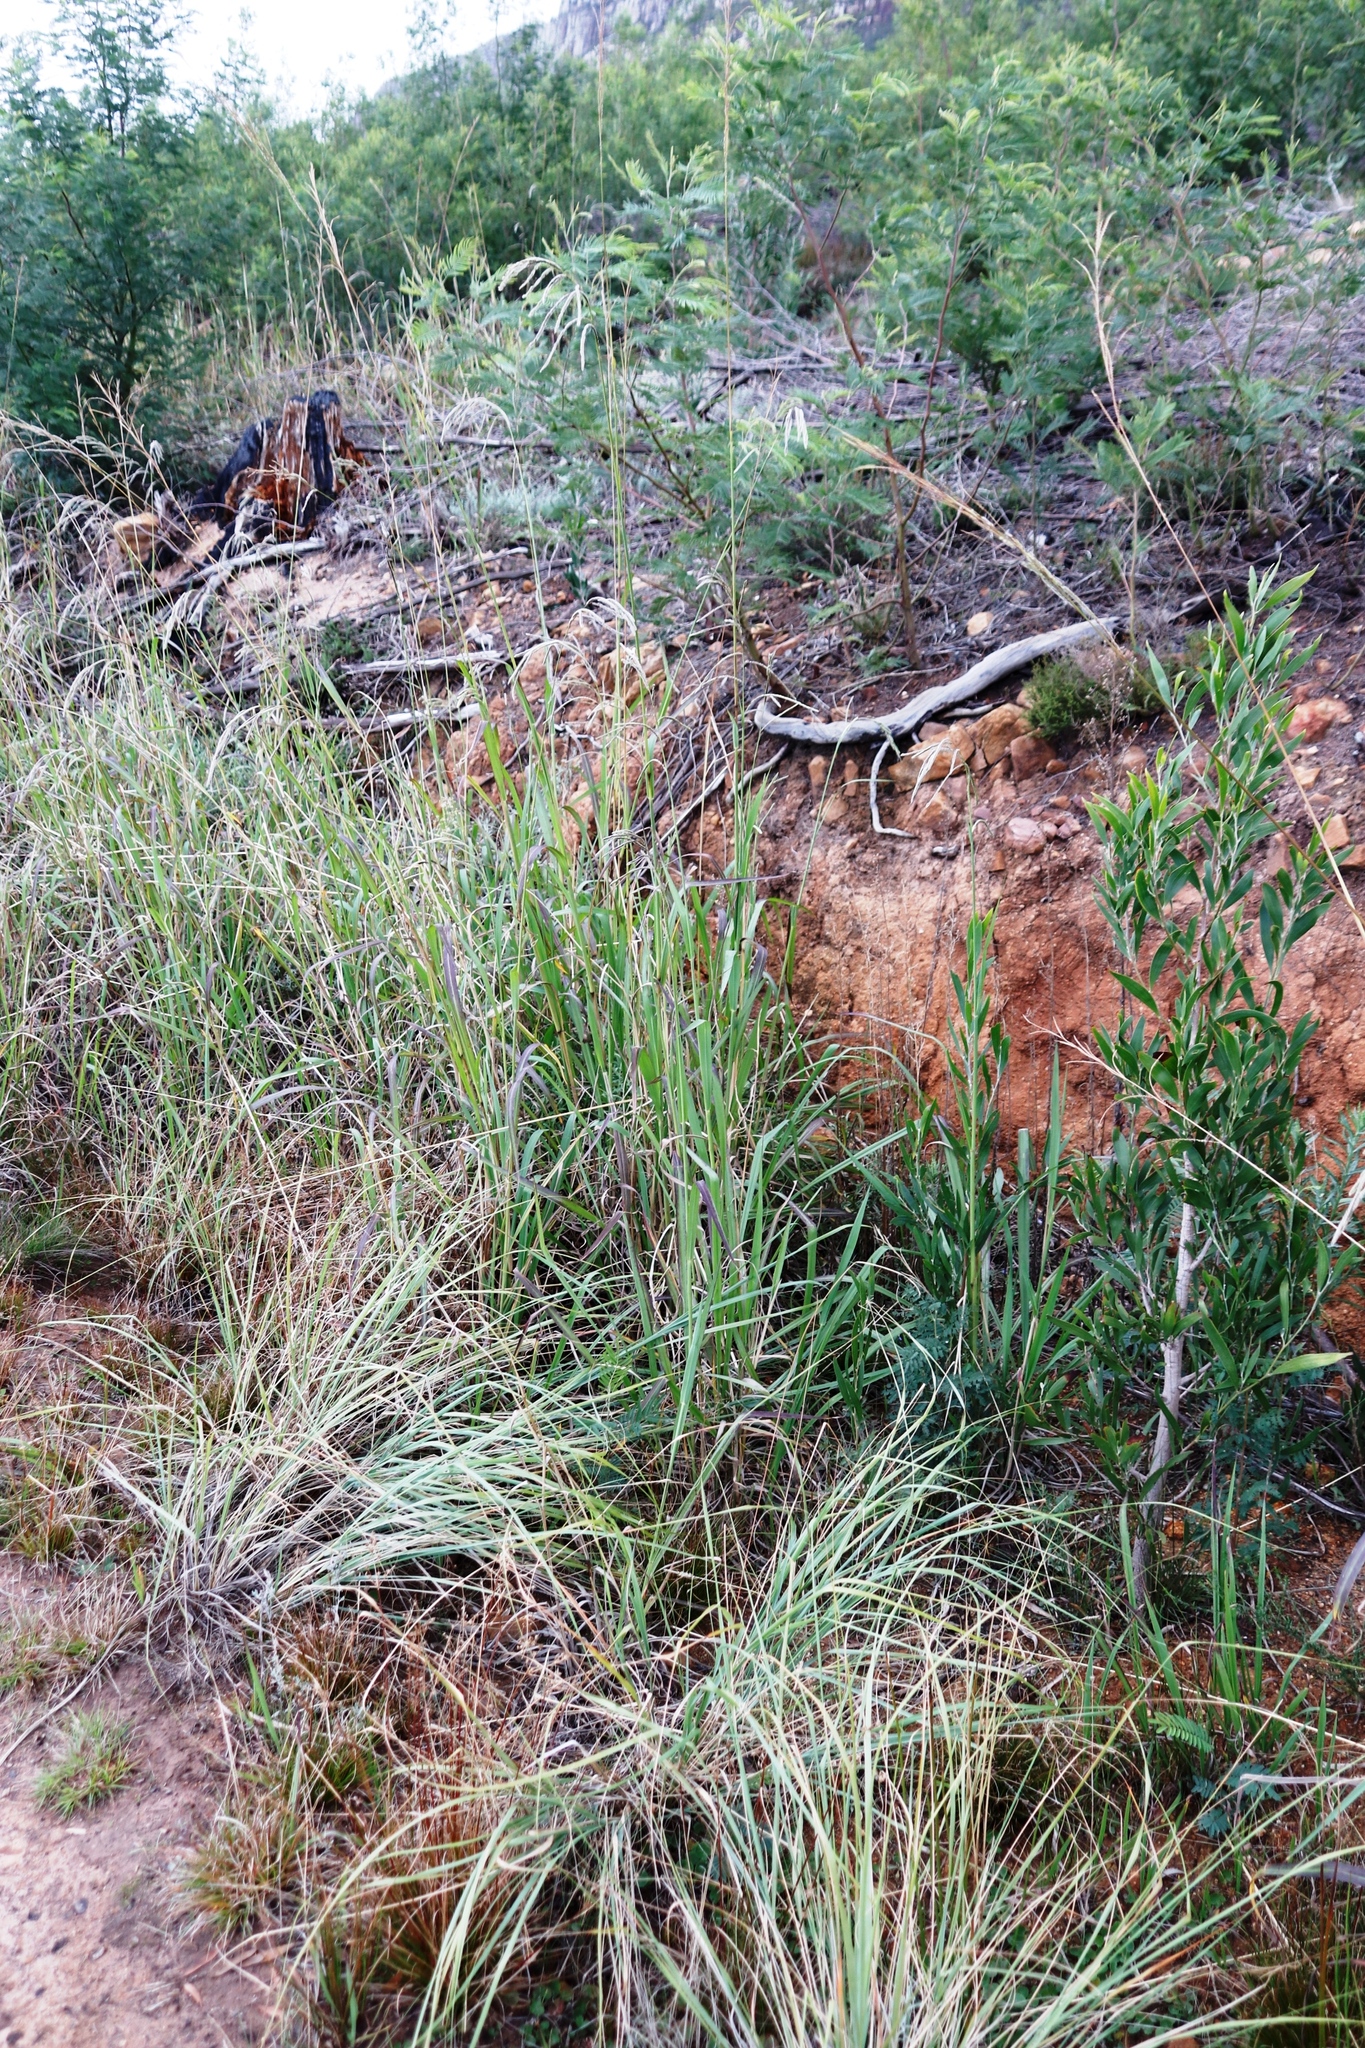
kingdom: Plantae
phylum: Tracheophyta
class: Liliopsida
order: Poales
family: Poaceae
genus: Paspalum
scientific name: Paspalum urvillei
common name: Vasey's grass
